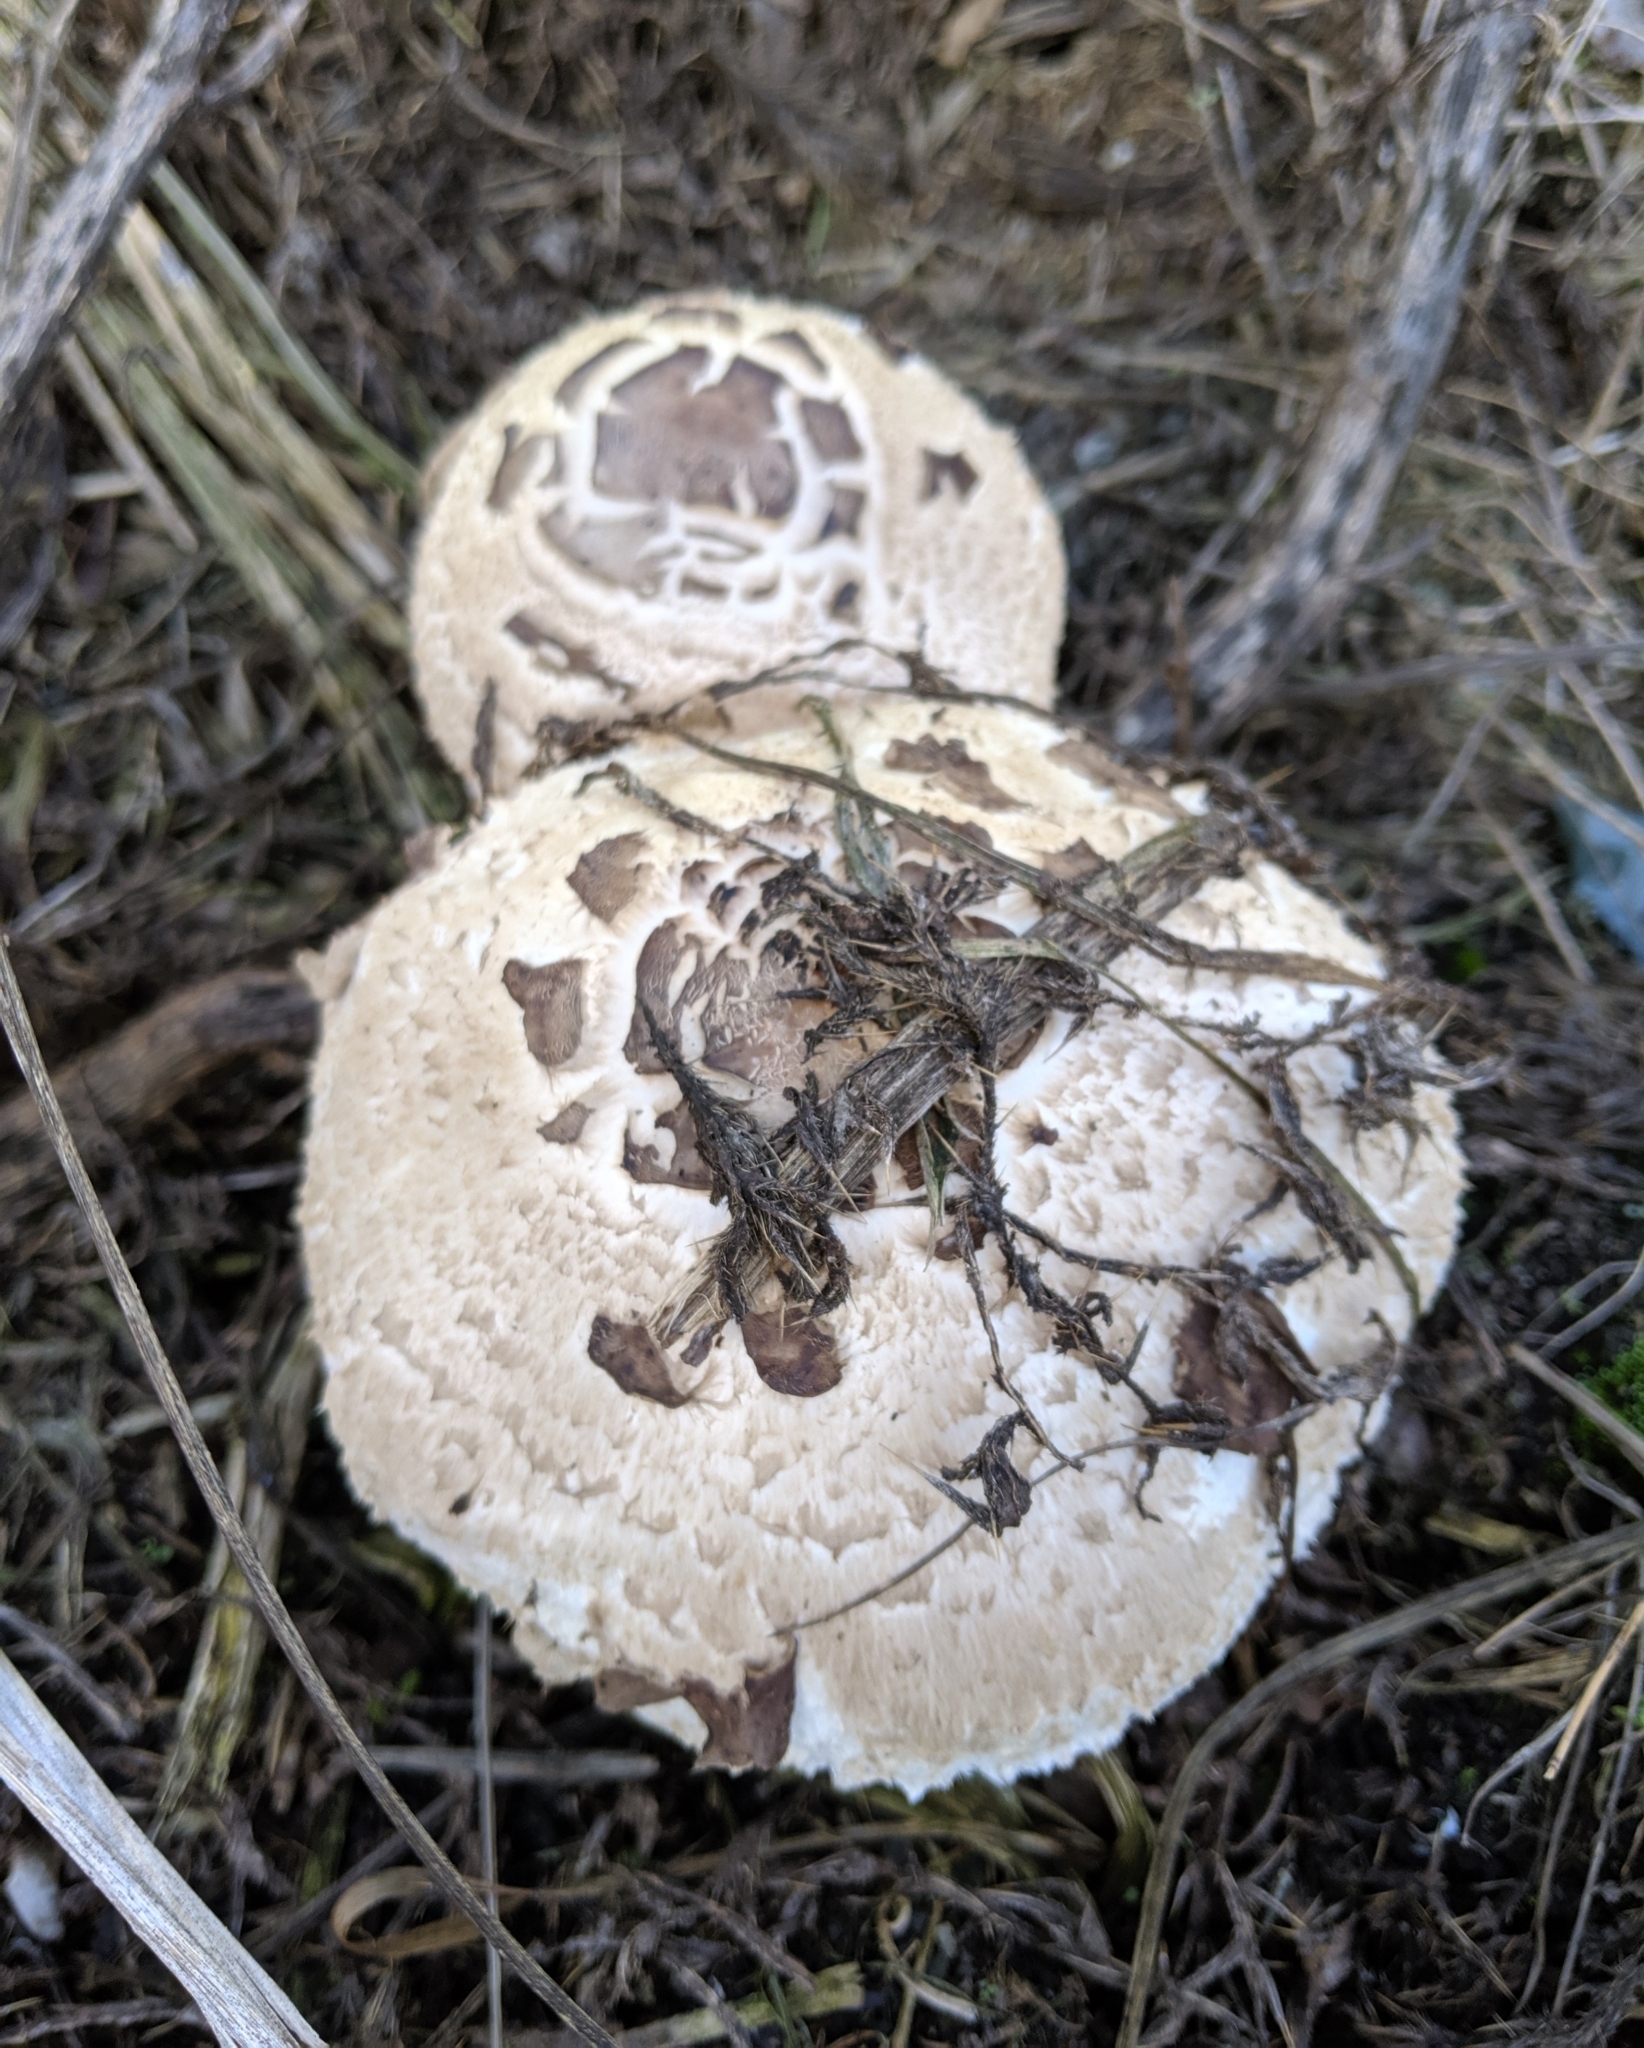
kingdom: Fungi
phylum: Basidiomycota
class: Agaricomycetes
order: Agaricales
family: Agaricaceae
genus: Chlorophyllum
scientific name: Chlorophyllum brunneum
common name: Brown parasol
